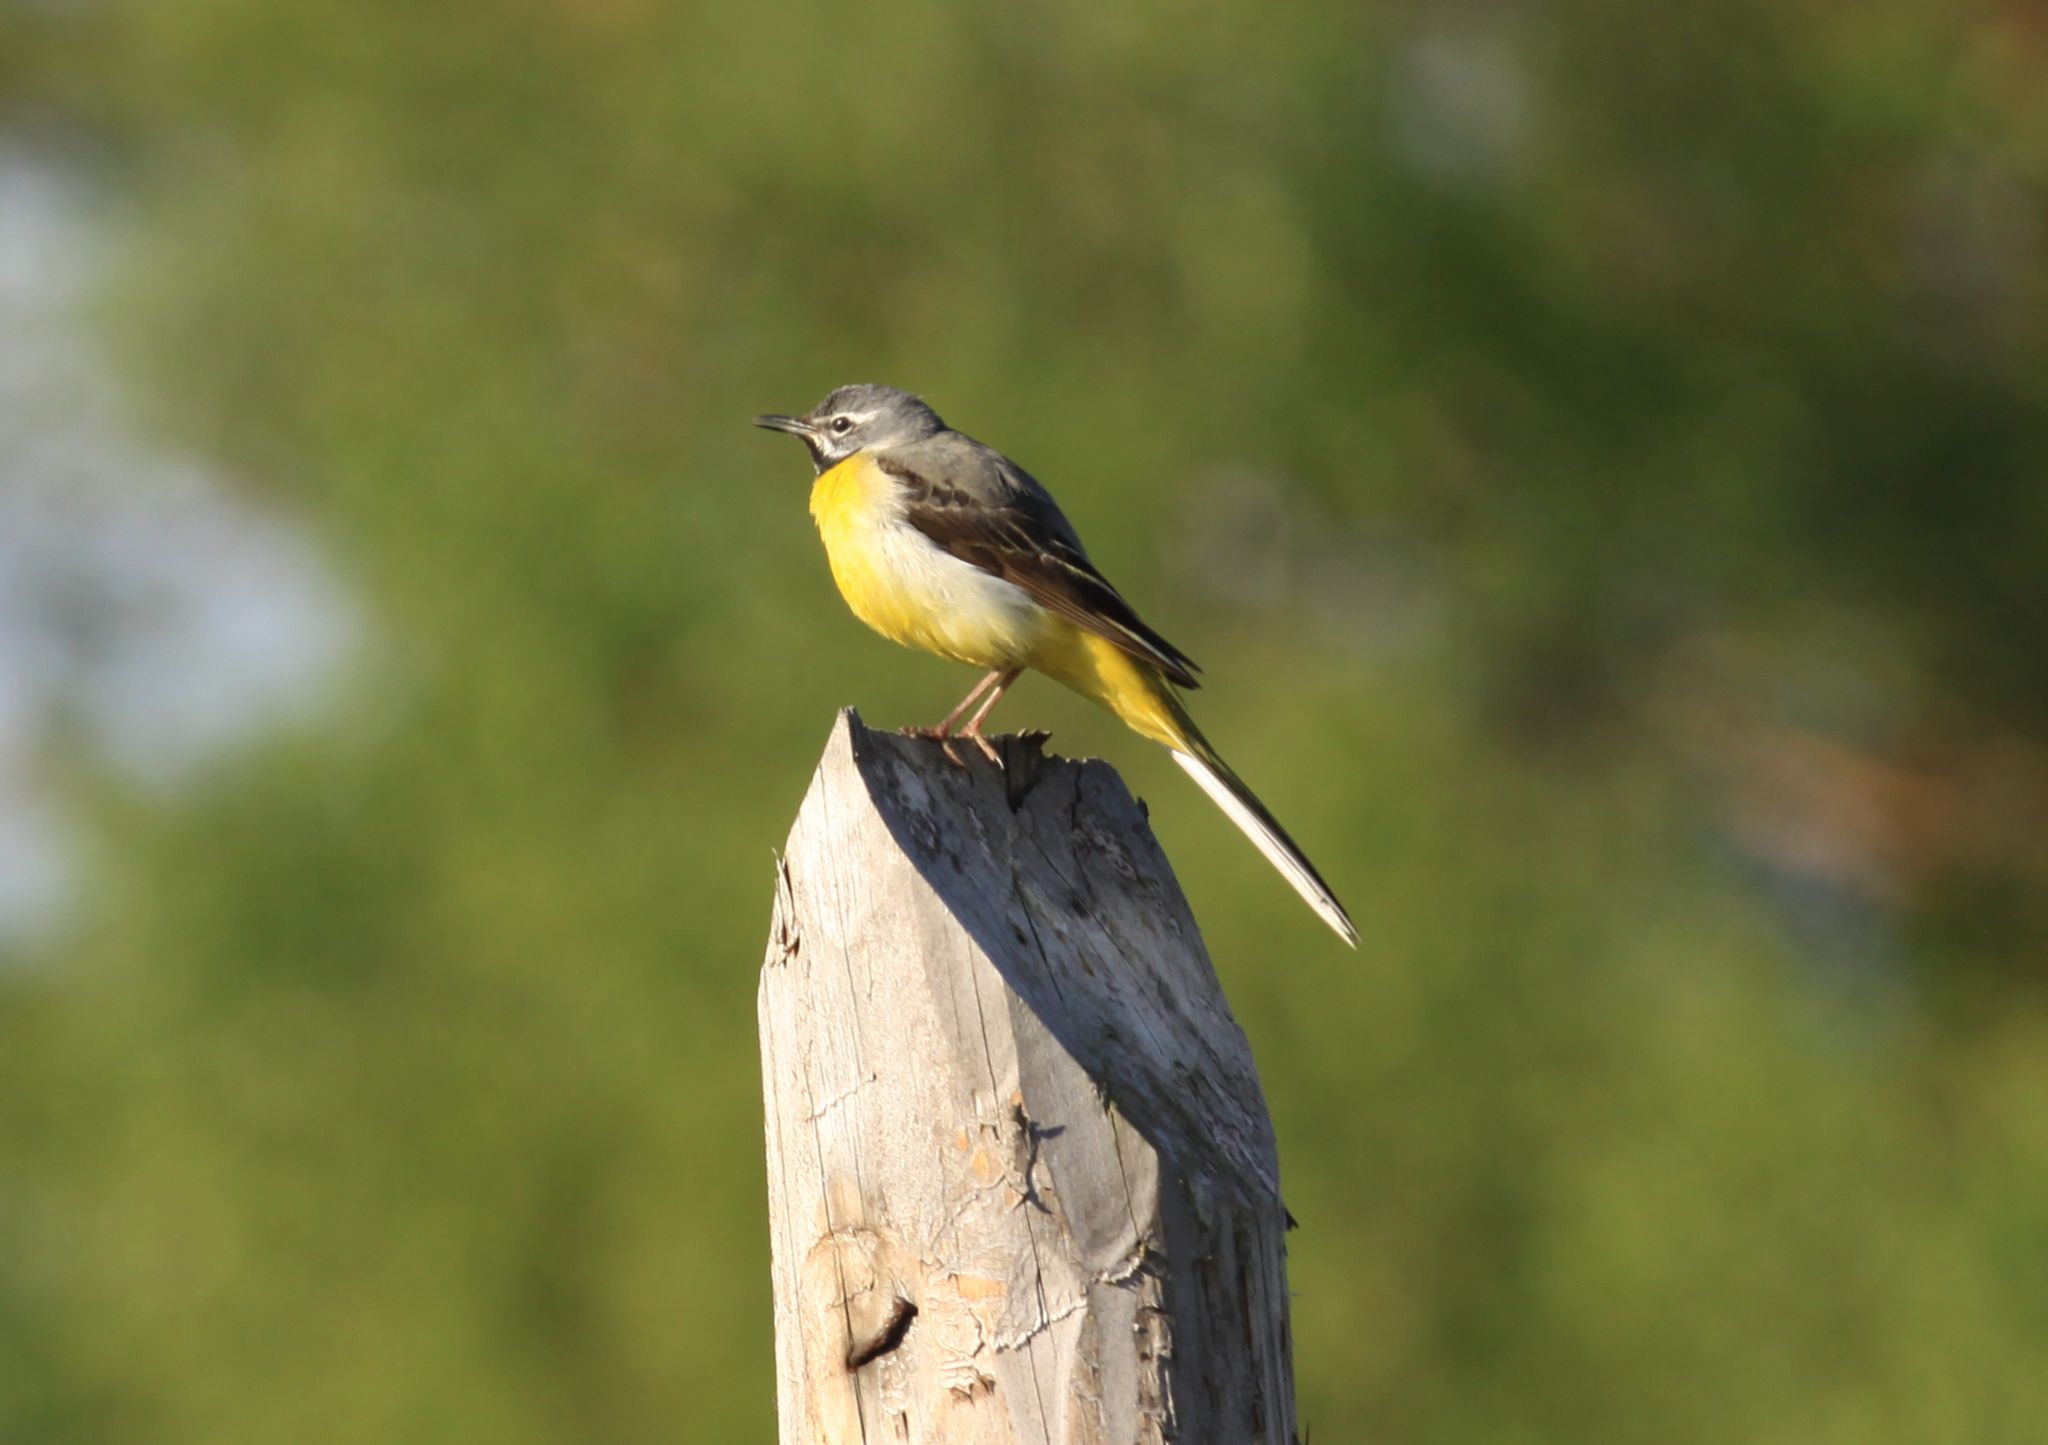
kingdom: Animalia
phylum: Chordata
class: Aves
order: Passeriformes
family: Motacillidae
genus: Motacilla
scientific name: Motacilla cinerea
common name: Grey wagtail
